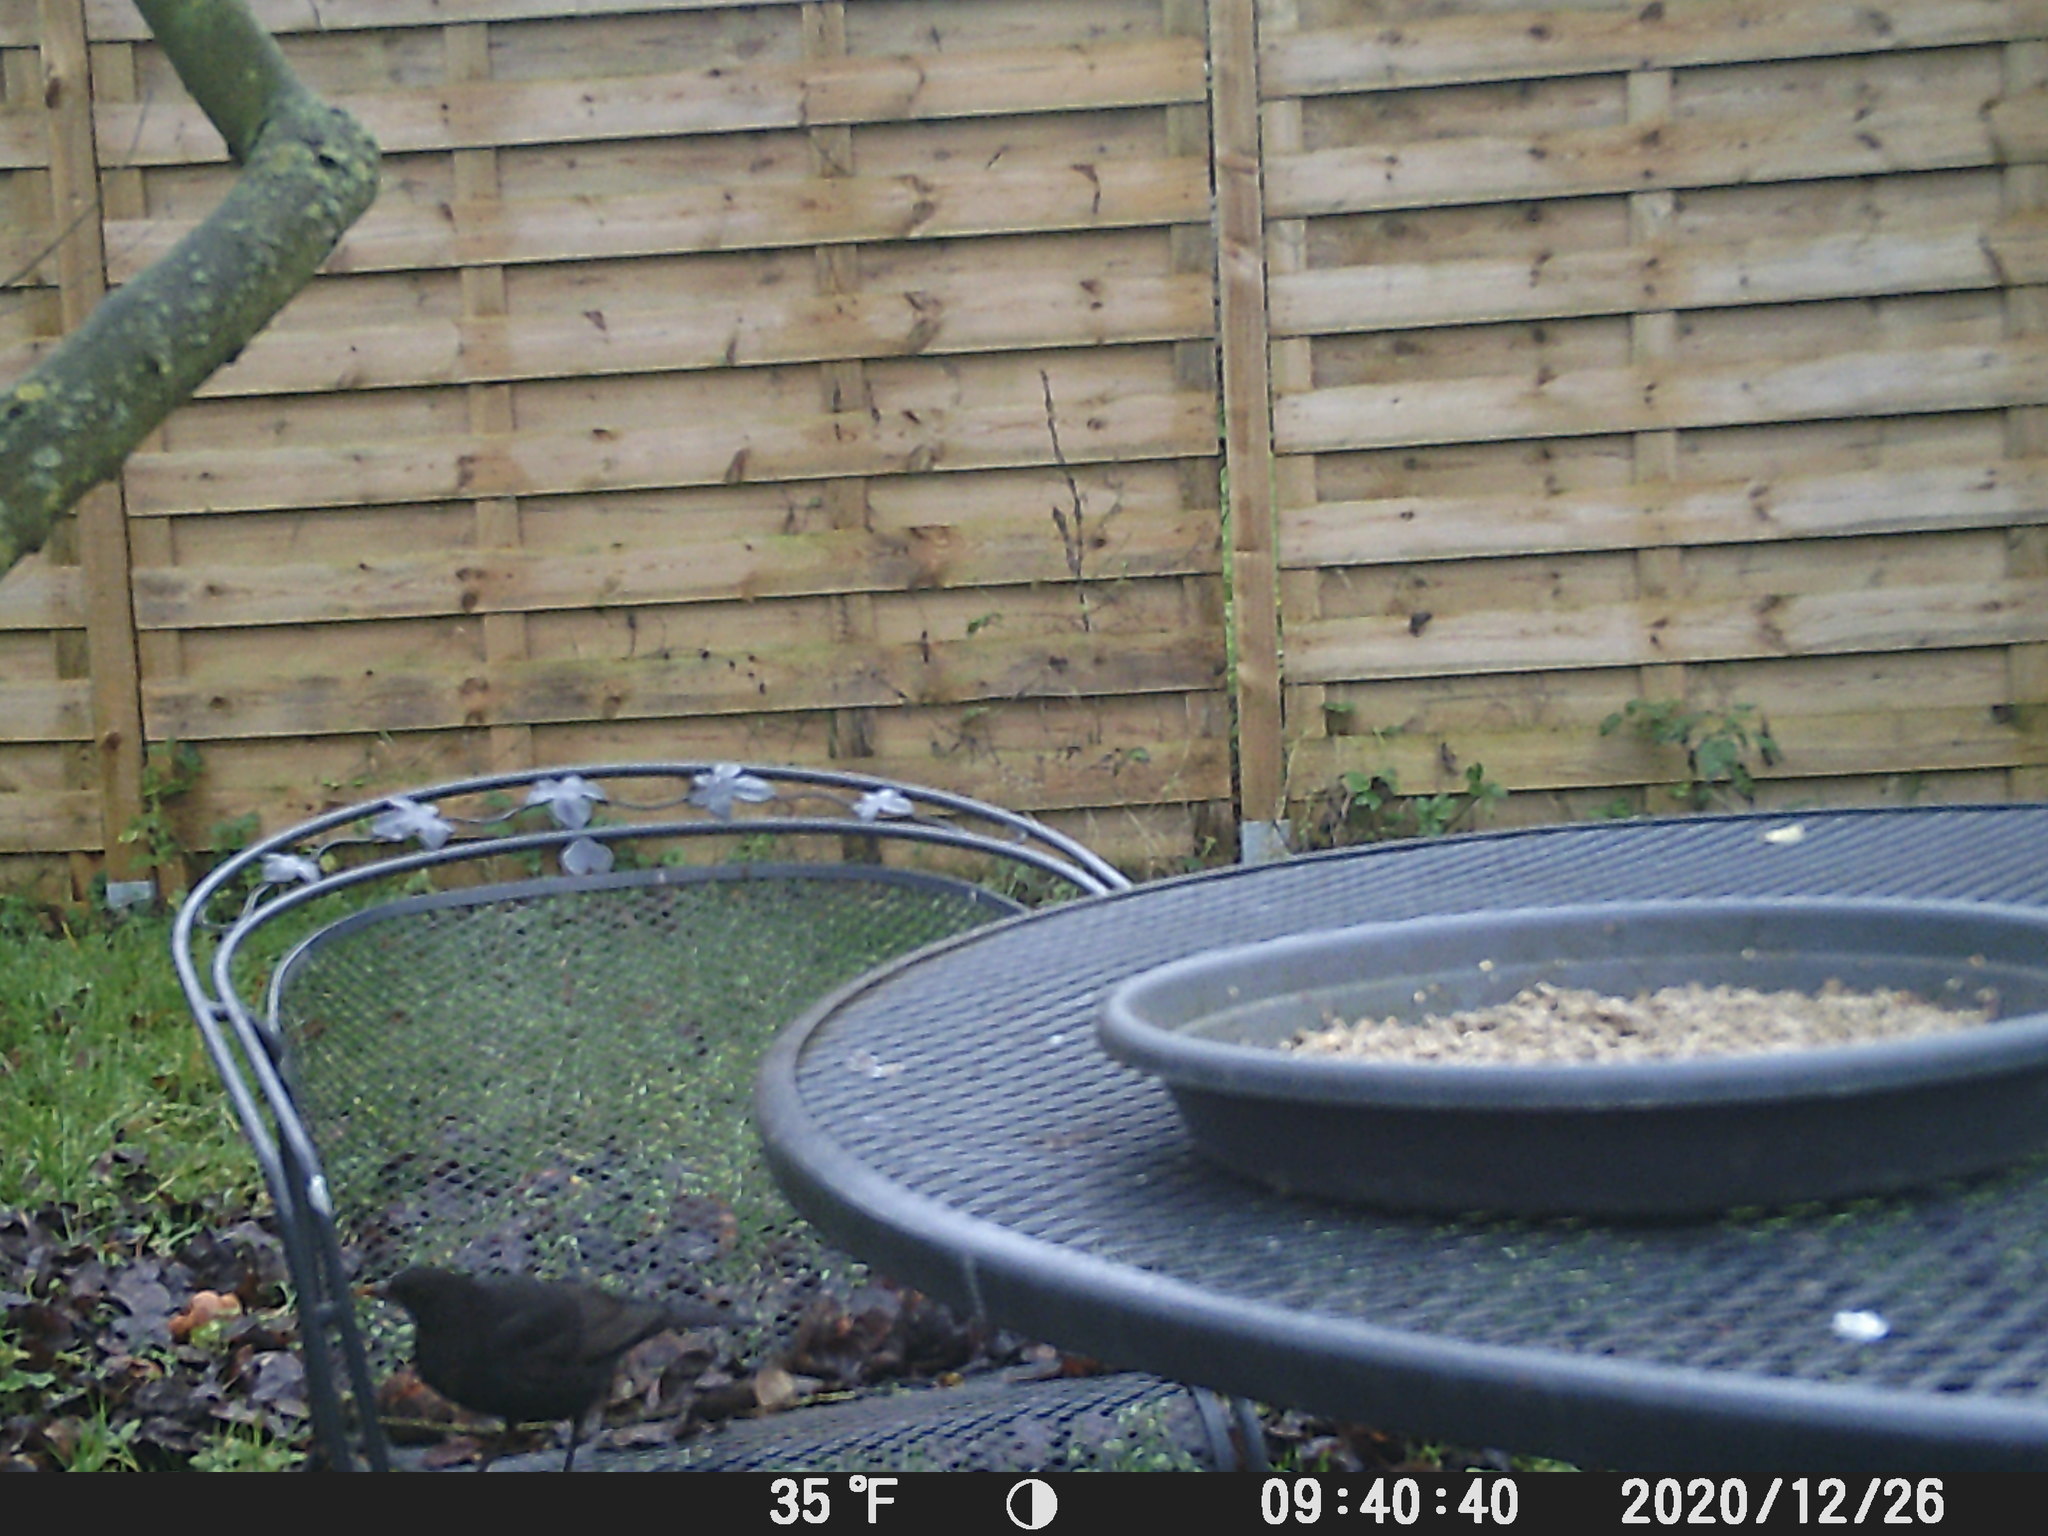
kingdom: Animalia
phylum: Chordata
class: Aves
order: Passeriformes
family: Turdidae
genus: Turdus
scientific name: Turdus merula
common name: Common blackbird
